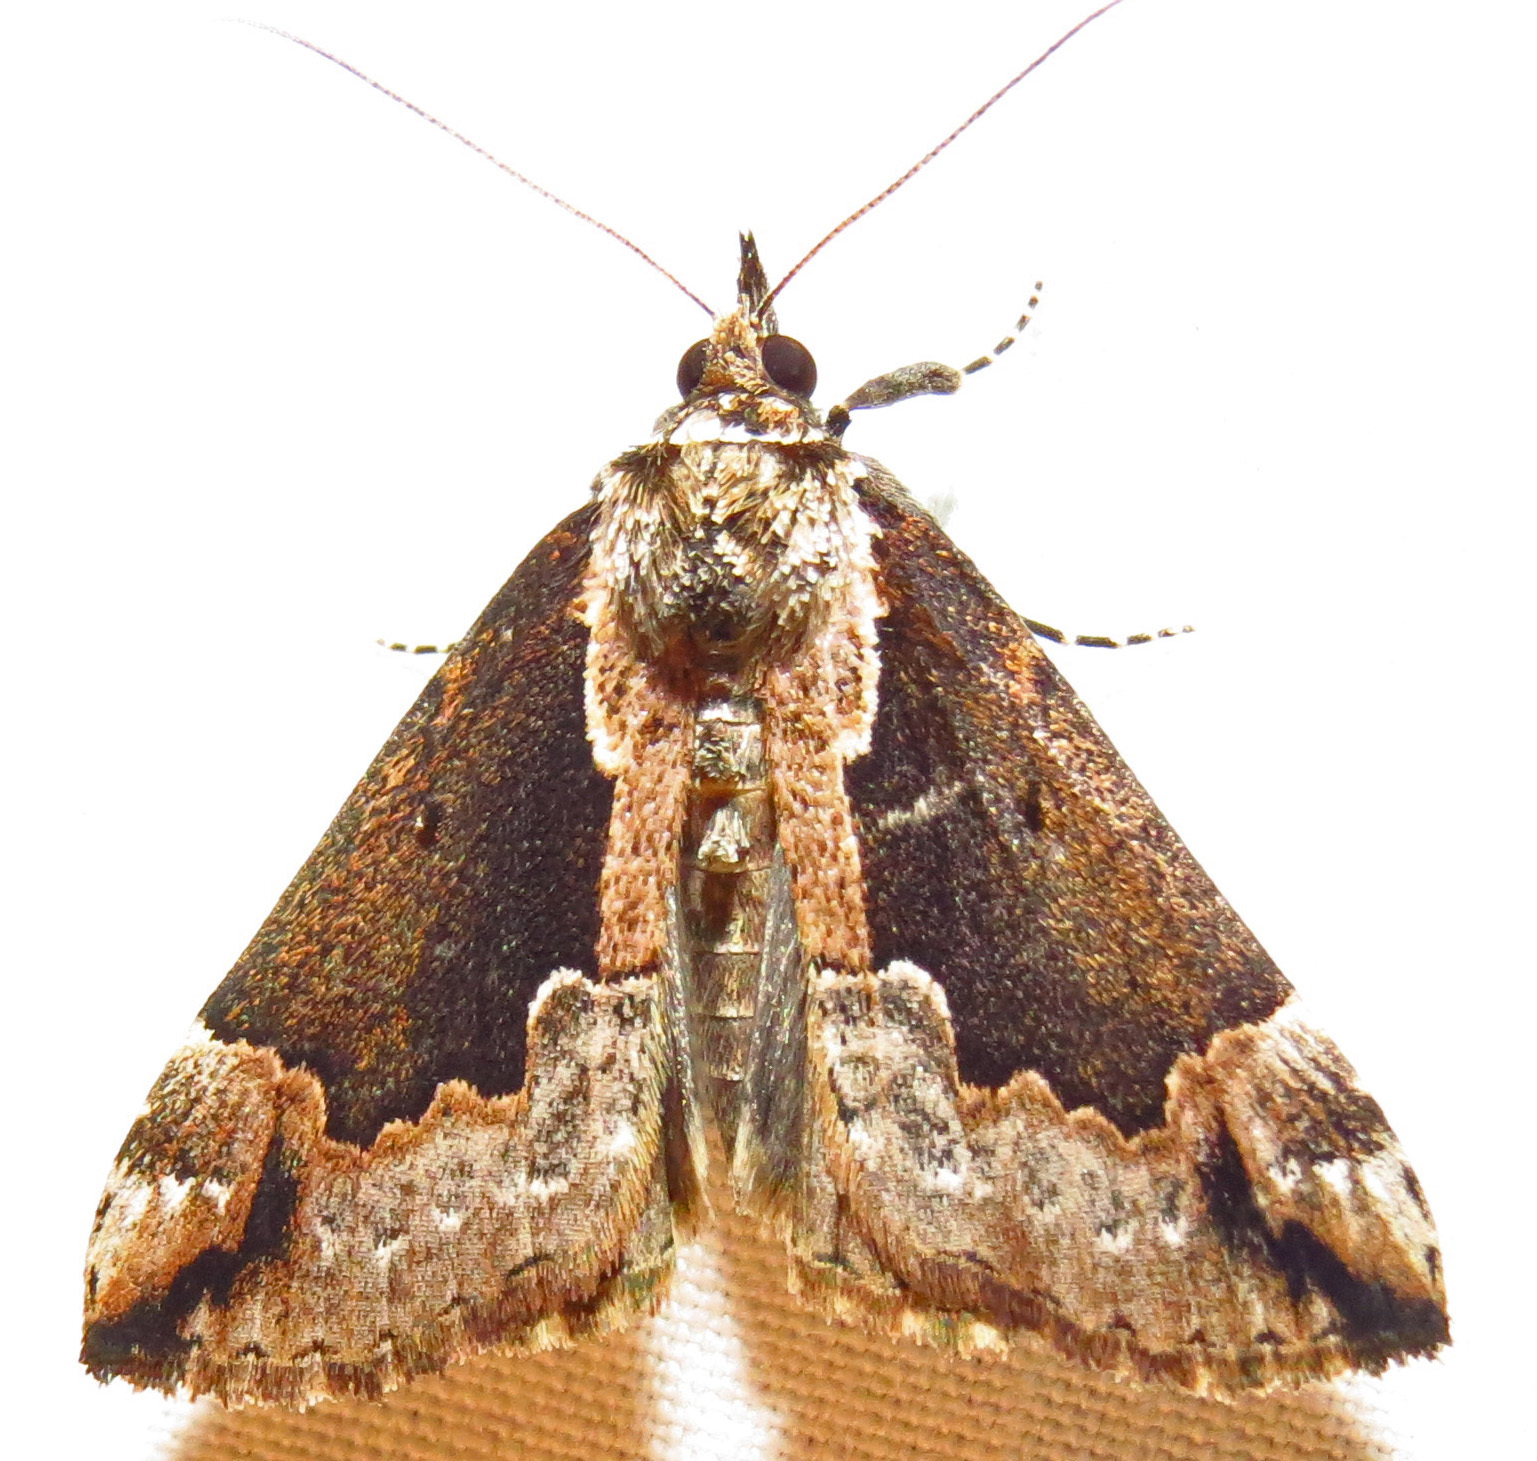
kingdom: Animalia
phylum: Arthropoda
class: Insecta
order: Lepidoptera
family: Erebidae
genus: Hypena
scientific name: Hypena baltimoralis
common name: Baltimore snout
